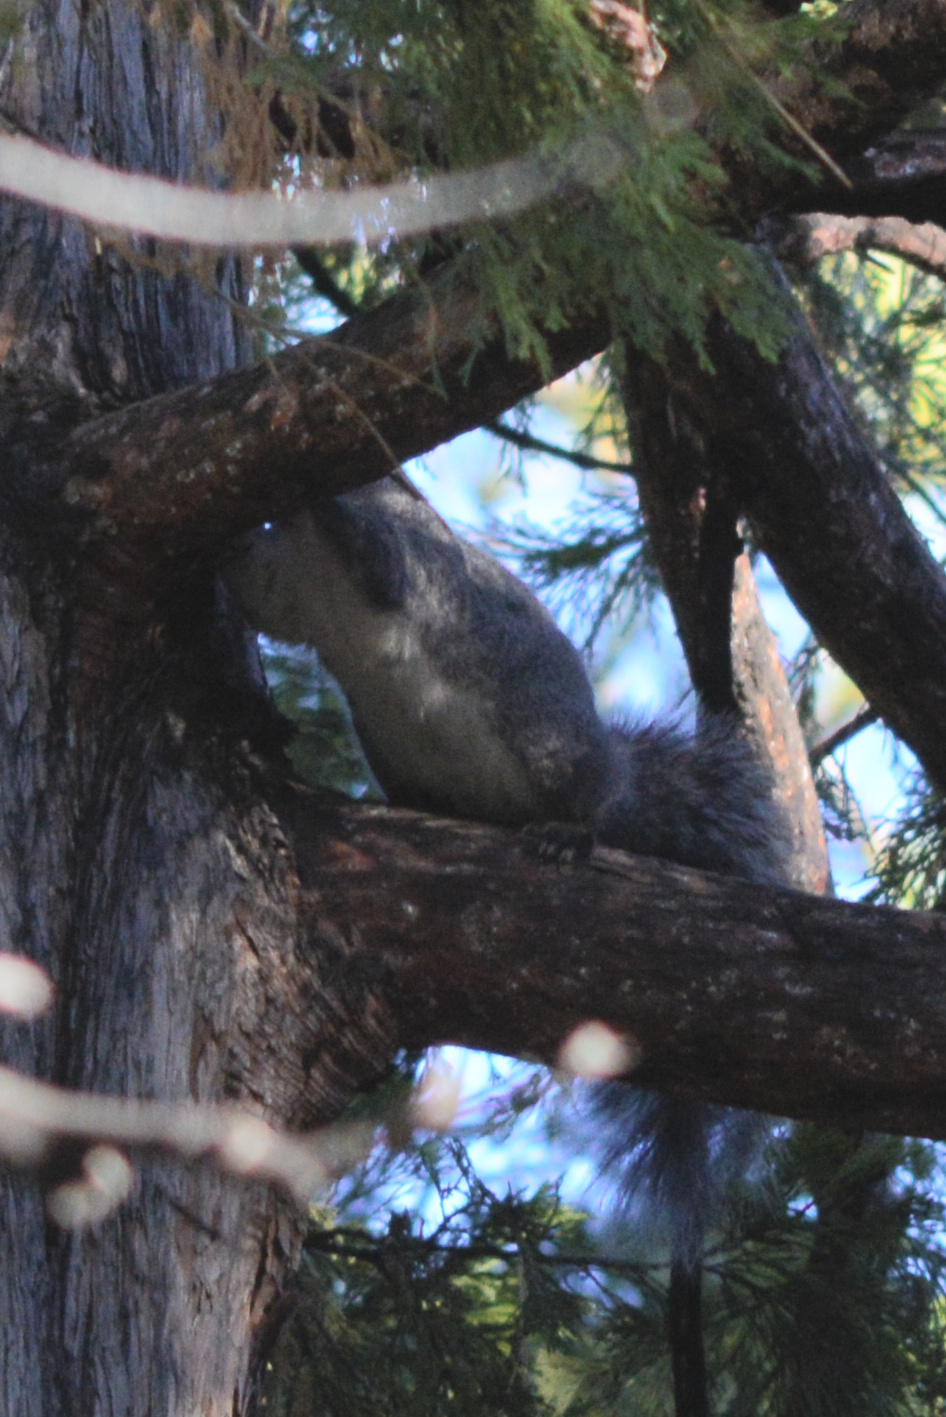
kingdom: Animalia
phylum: Chordata
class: Mammalia
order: Rodentia
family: Sciuridae
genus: Sciurus
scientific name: Sciurus griseus
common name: Western gray squirrel
